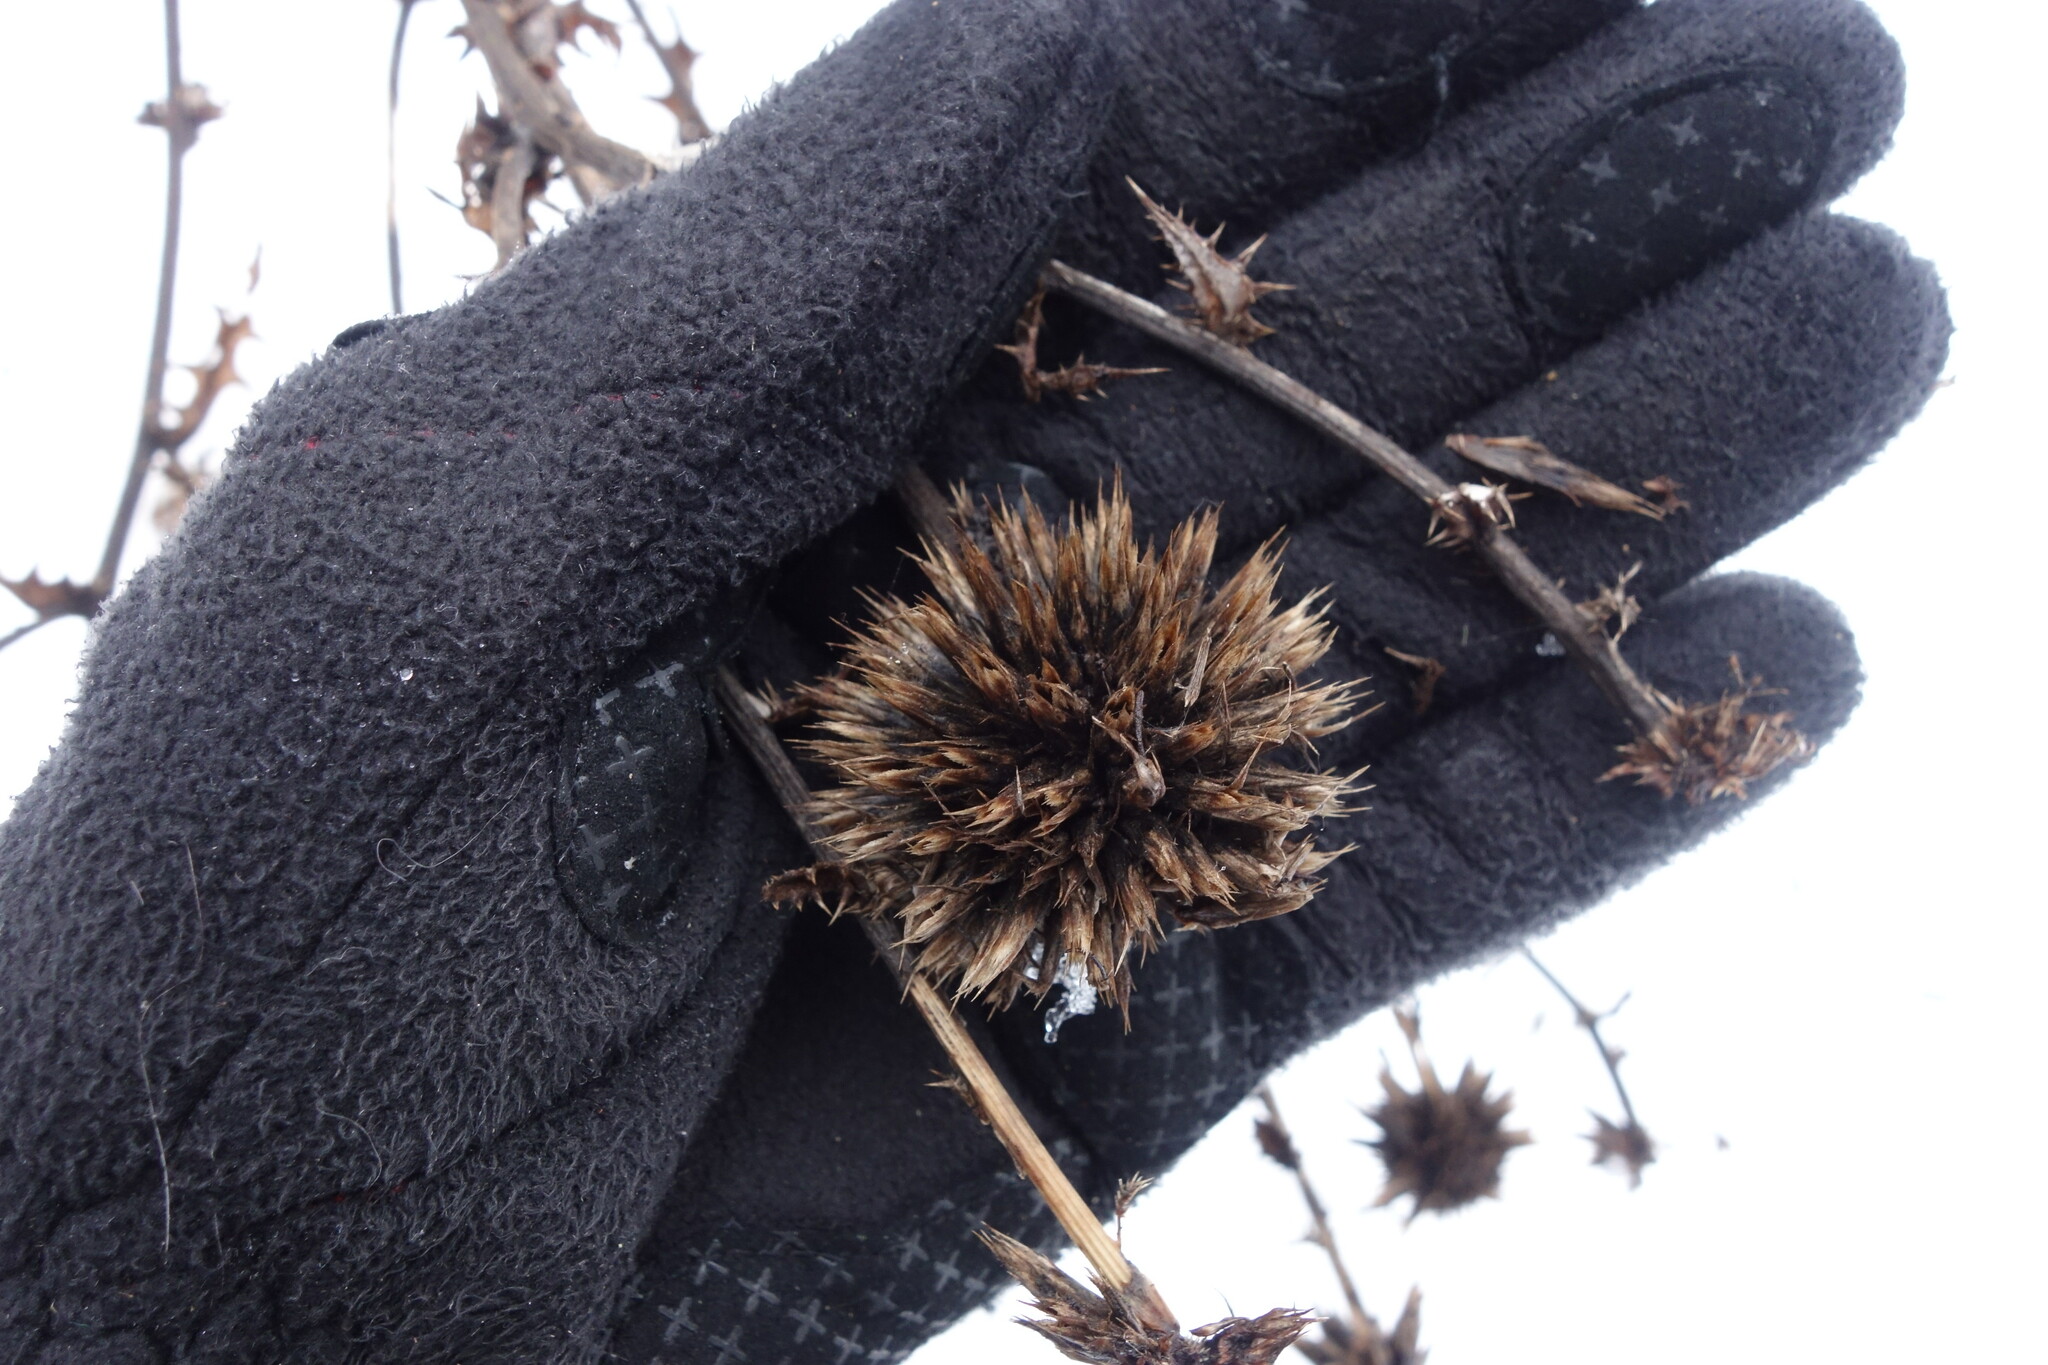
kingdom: Plantae
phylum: Tracheophyta
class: Magnoliopsida
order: Asterales
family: Asteraceae
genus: Echinops
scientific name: Echinops sphaerocephalus
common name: Glandular globe-thistle
